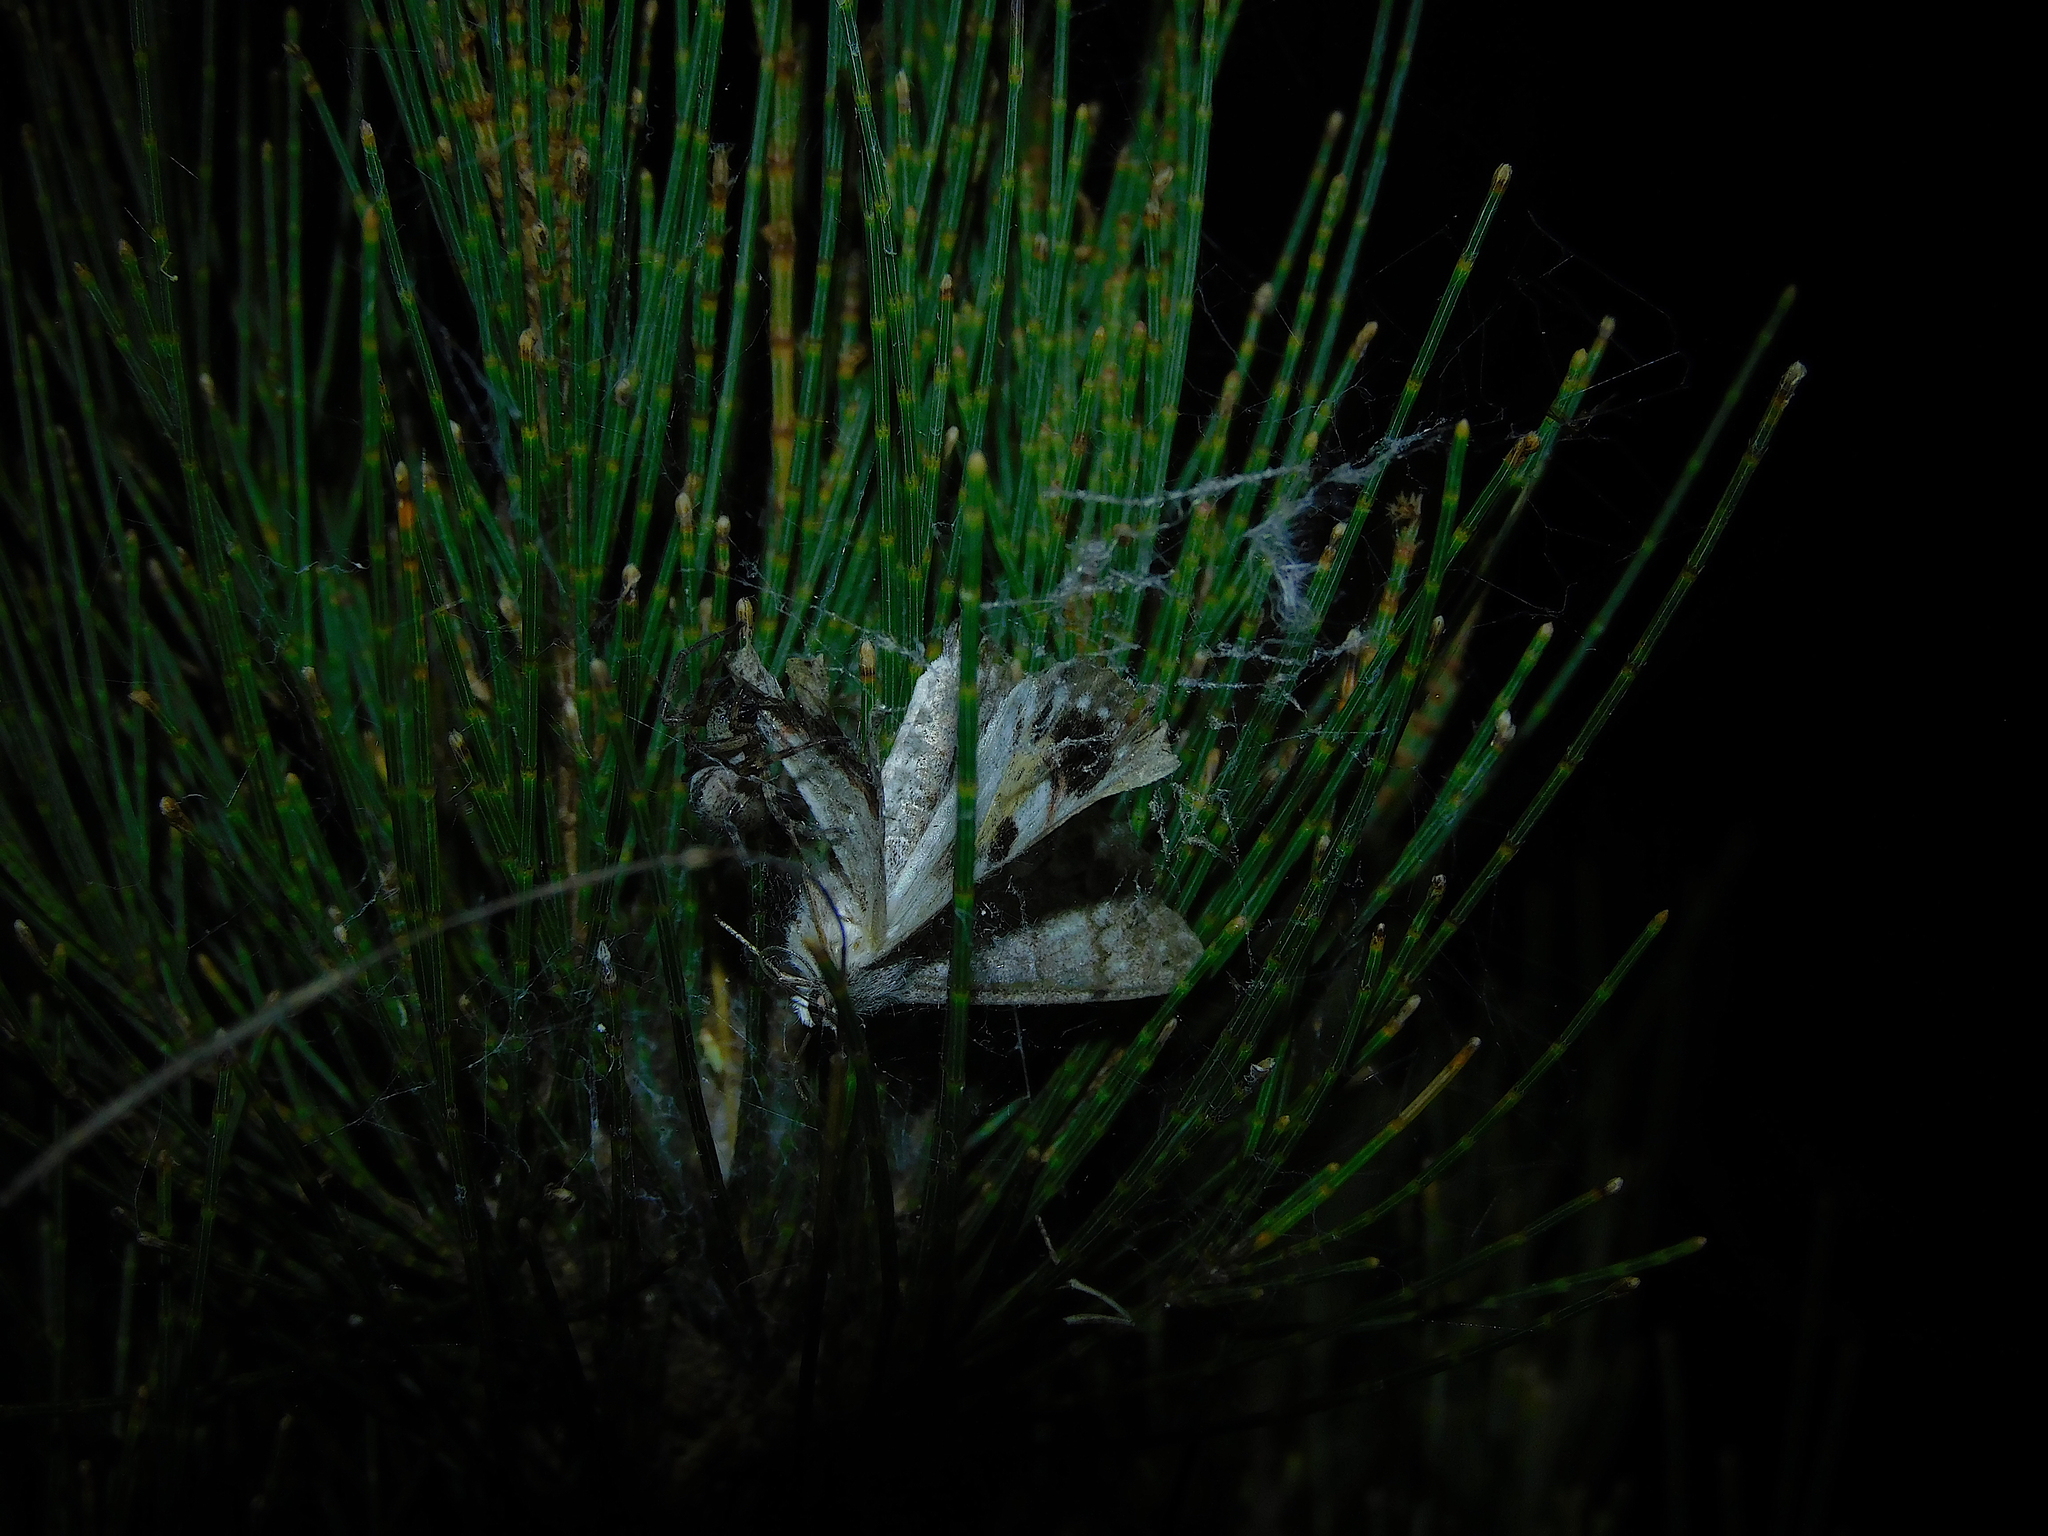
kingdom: Animalia
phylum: Arthropoda
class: Insecta
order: Lepidoptera
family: Geometridae
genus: Crypsiphona
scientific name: Crypsiphona
